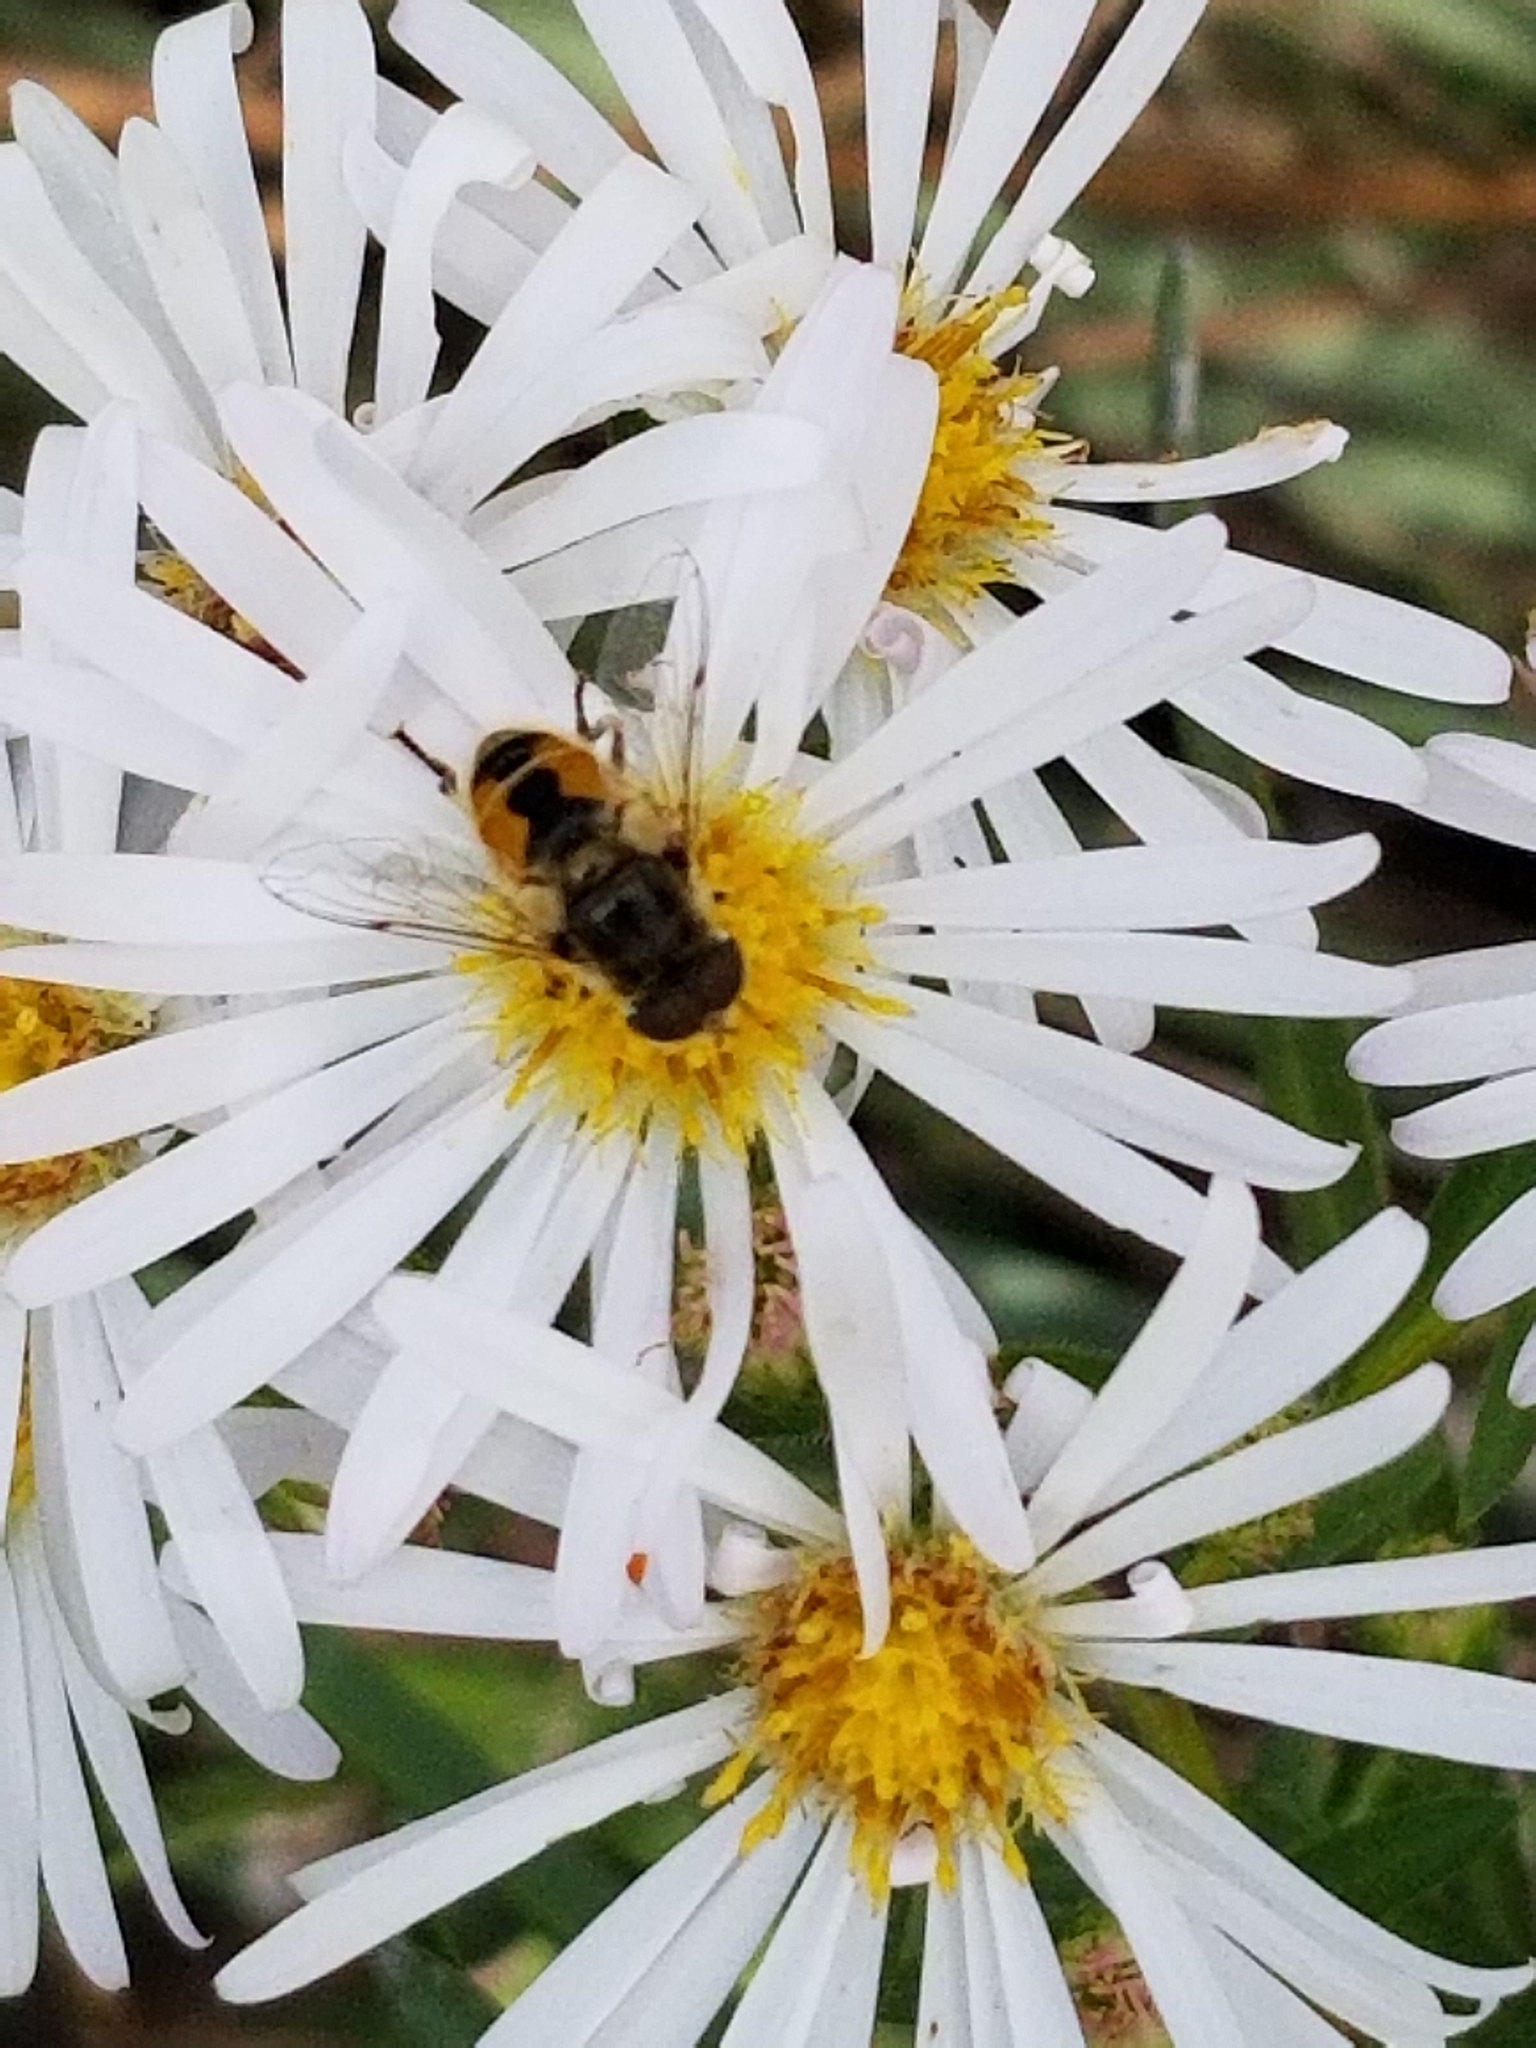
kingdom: Animalia
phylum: Arthropoda
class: Insecta
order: Diptera
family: Syrphidae
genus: Eristalis
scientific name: Eristalis arbustorum
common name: Hover fly
